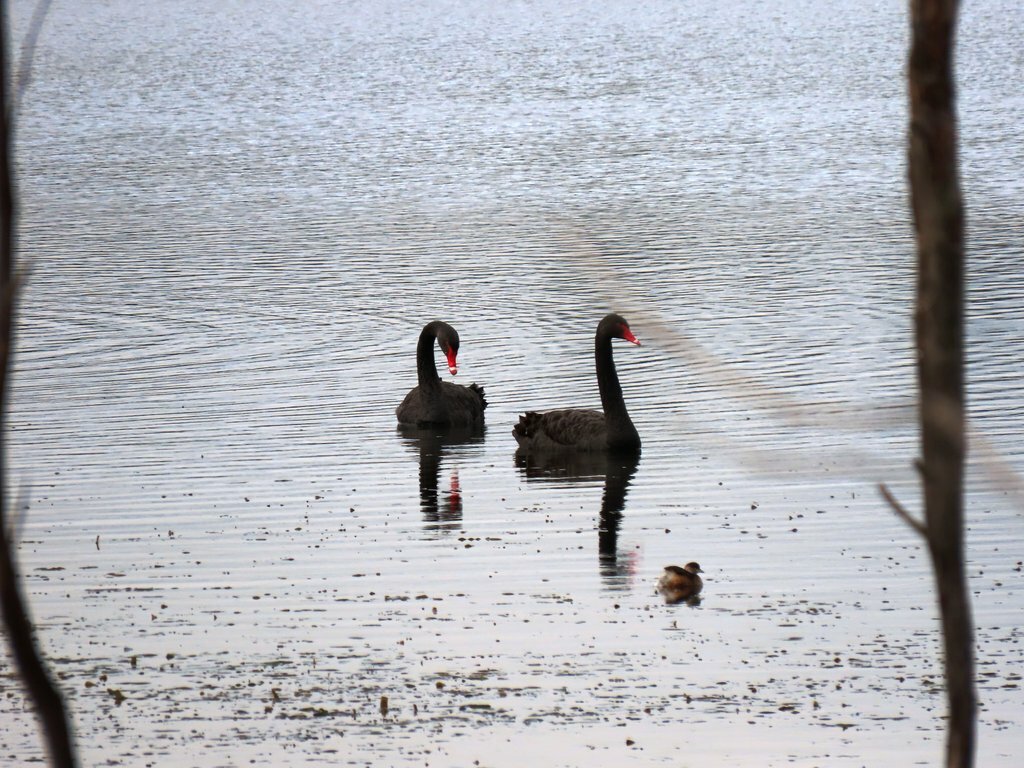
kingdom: Animalia
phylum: Chordata
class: Aves
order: Anseriformes
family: Anatidae
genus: Cygnus
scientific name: Cygnus atratus
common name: Black swan
